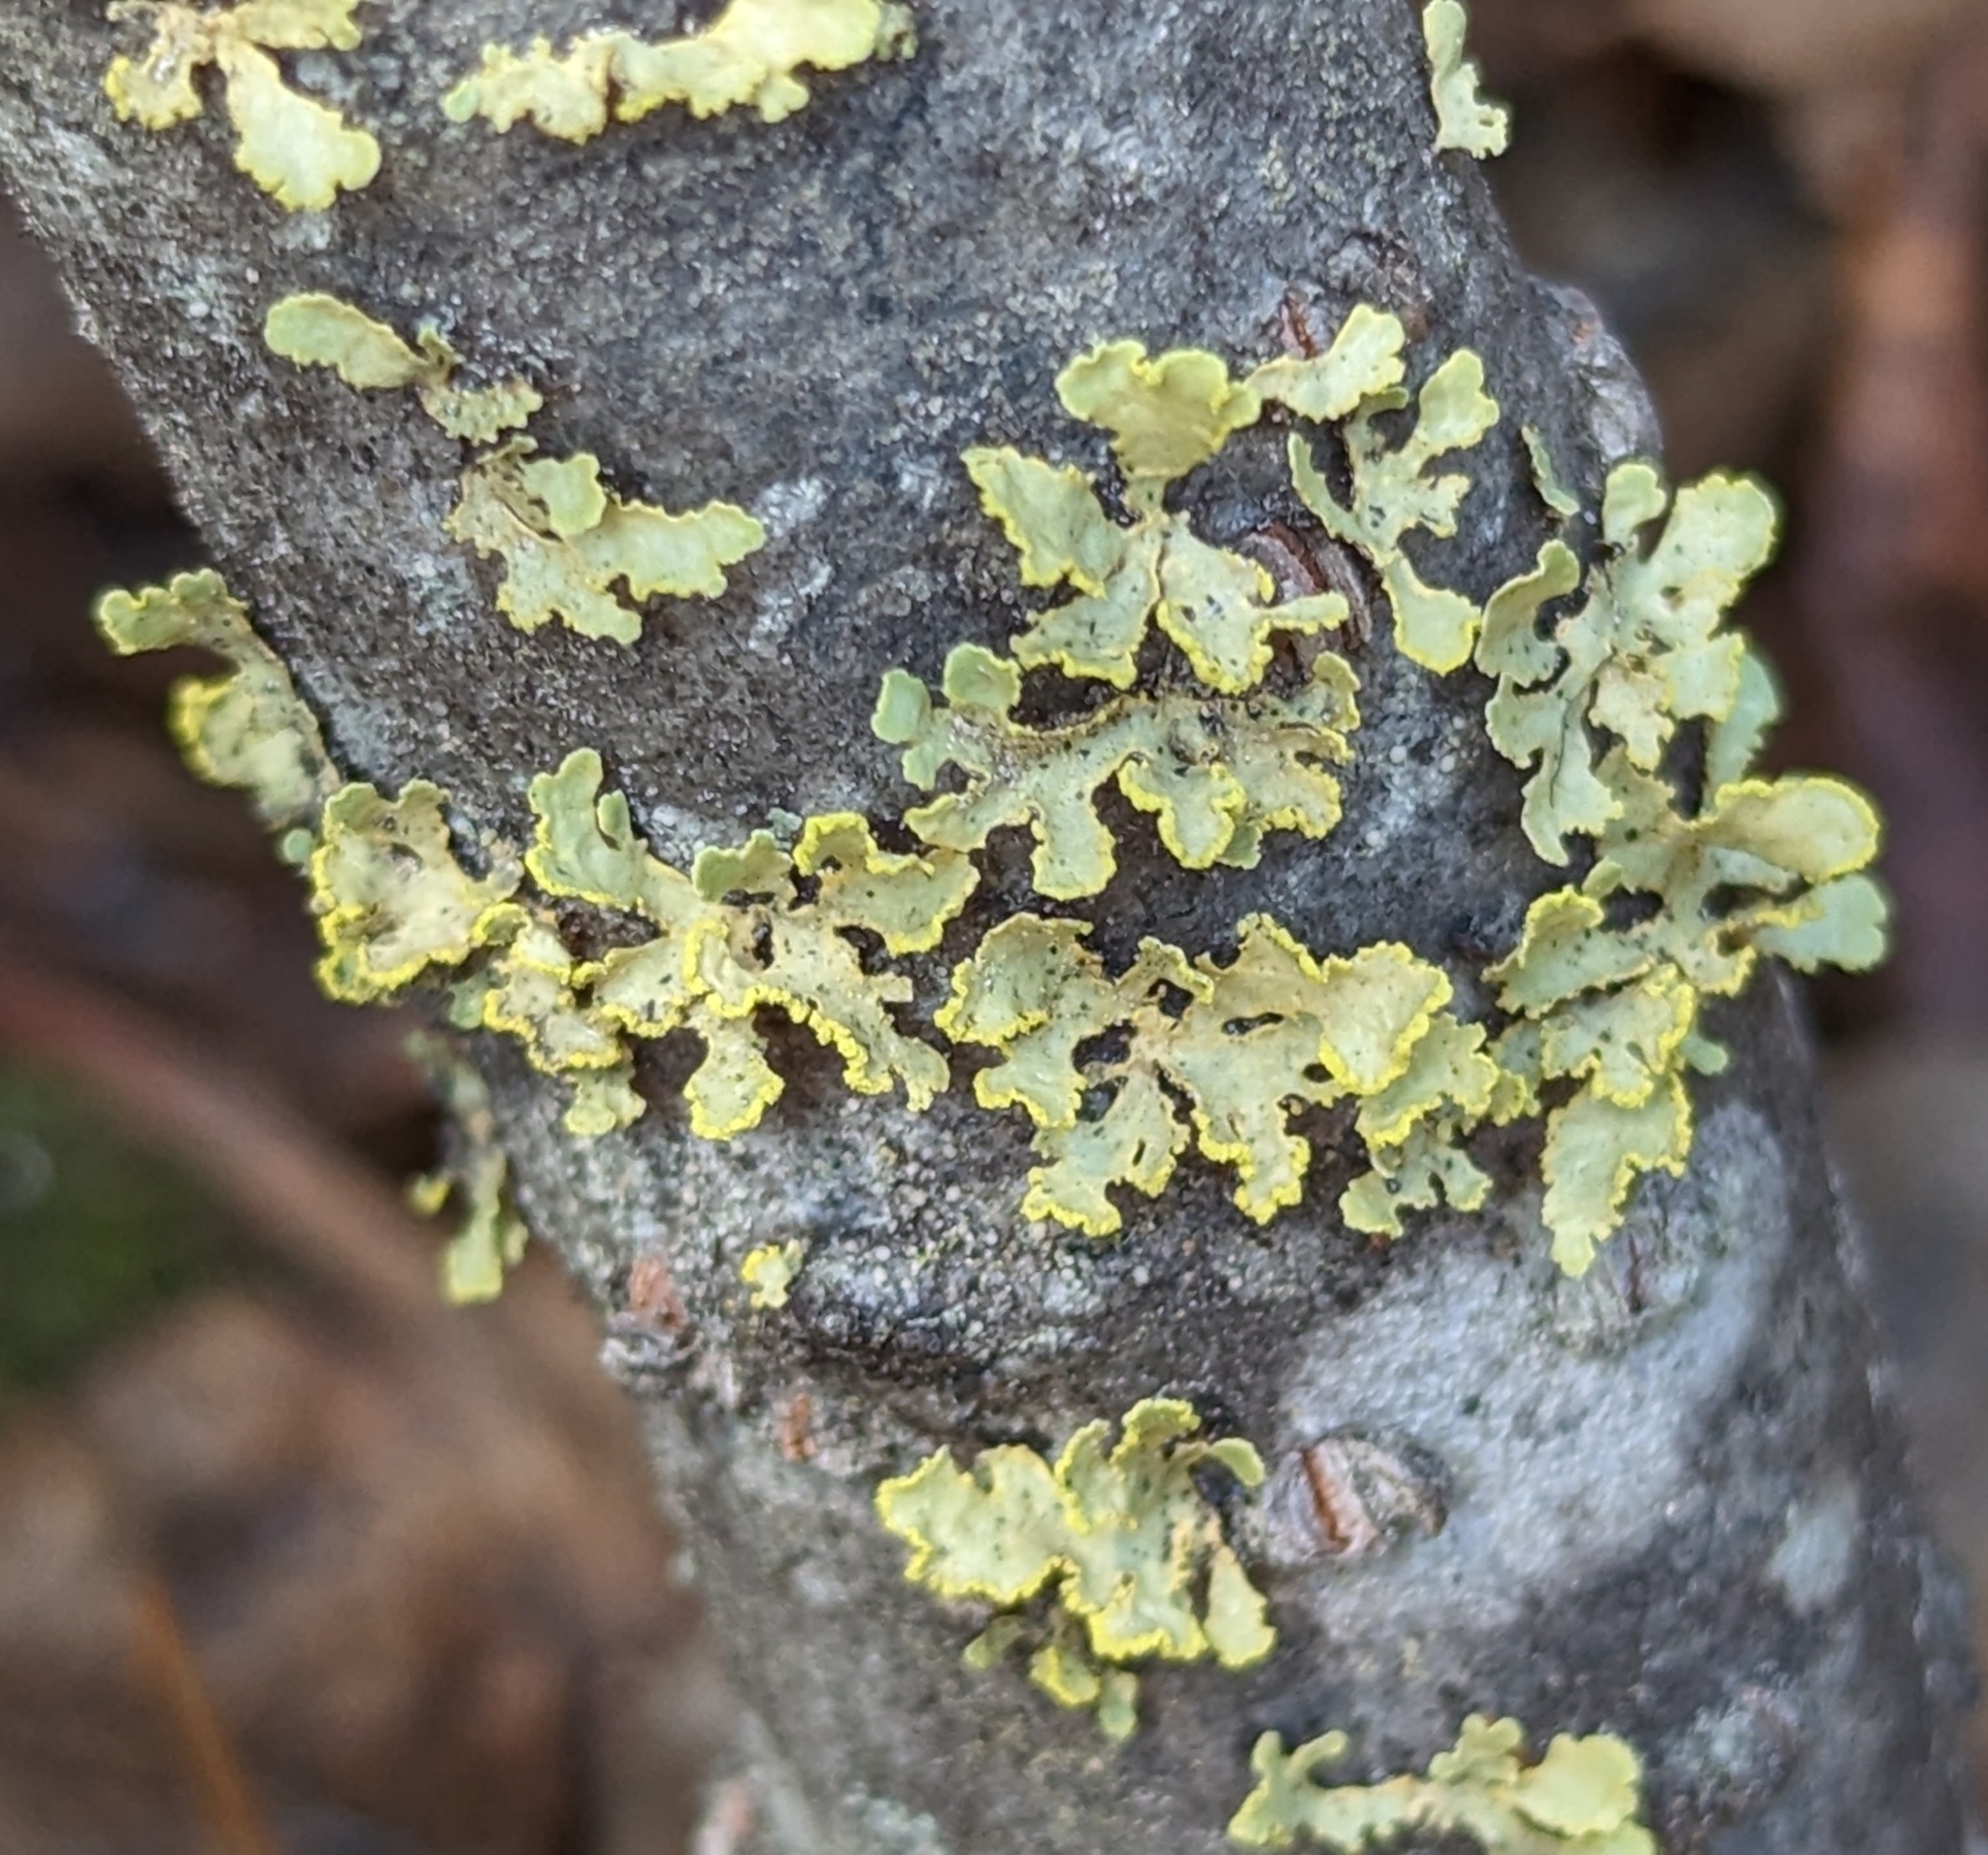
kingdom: Fungi
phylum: Ascomycota
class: Lecanoromycetes
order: Lecanorales
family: Parmeliaceae
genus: Vulpicida
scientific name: Vulpicida pinastri
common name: Powdered sunshine lichen
